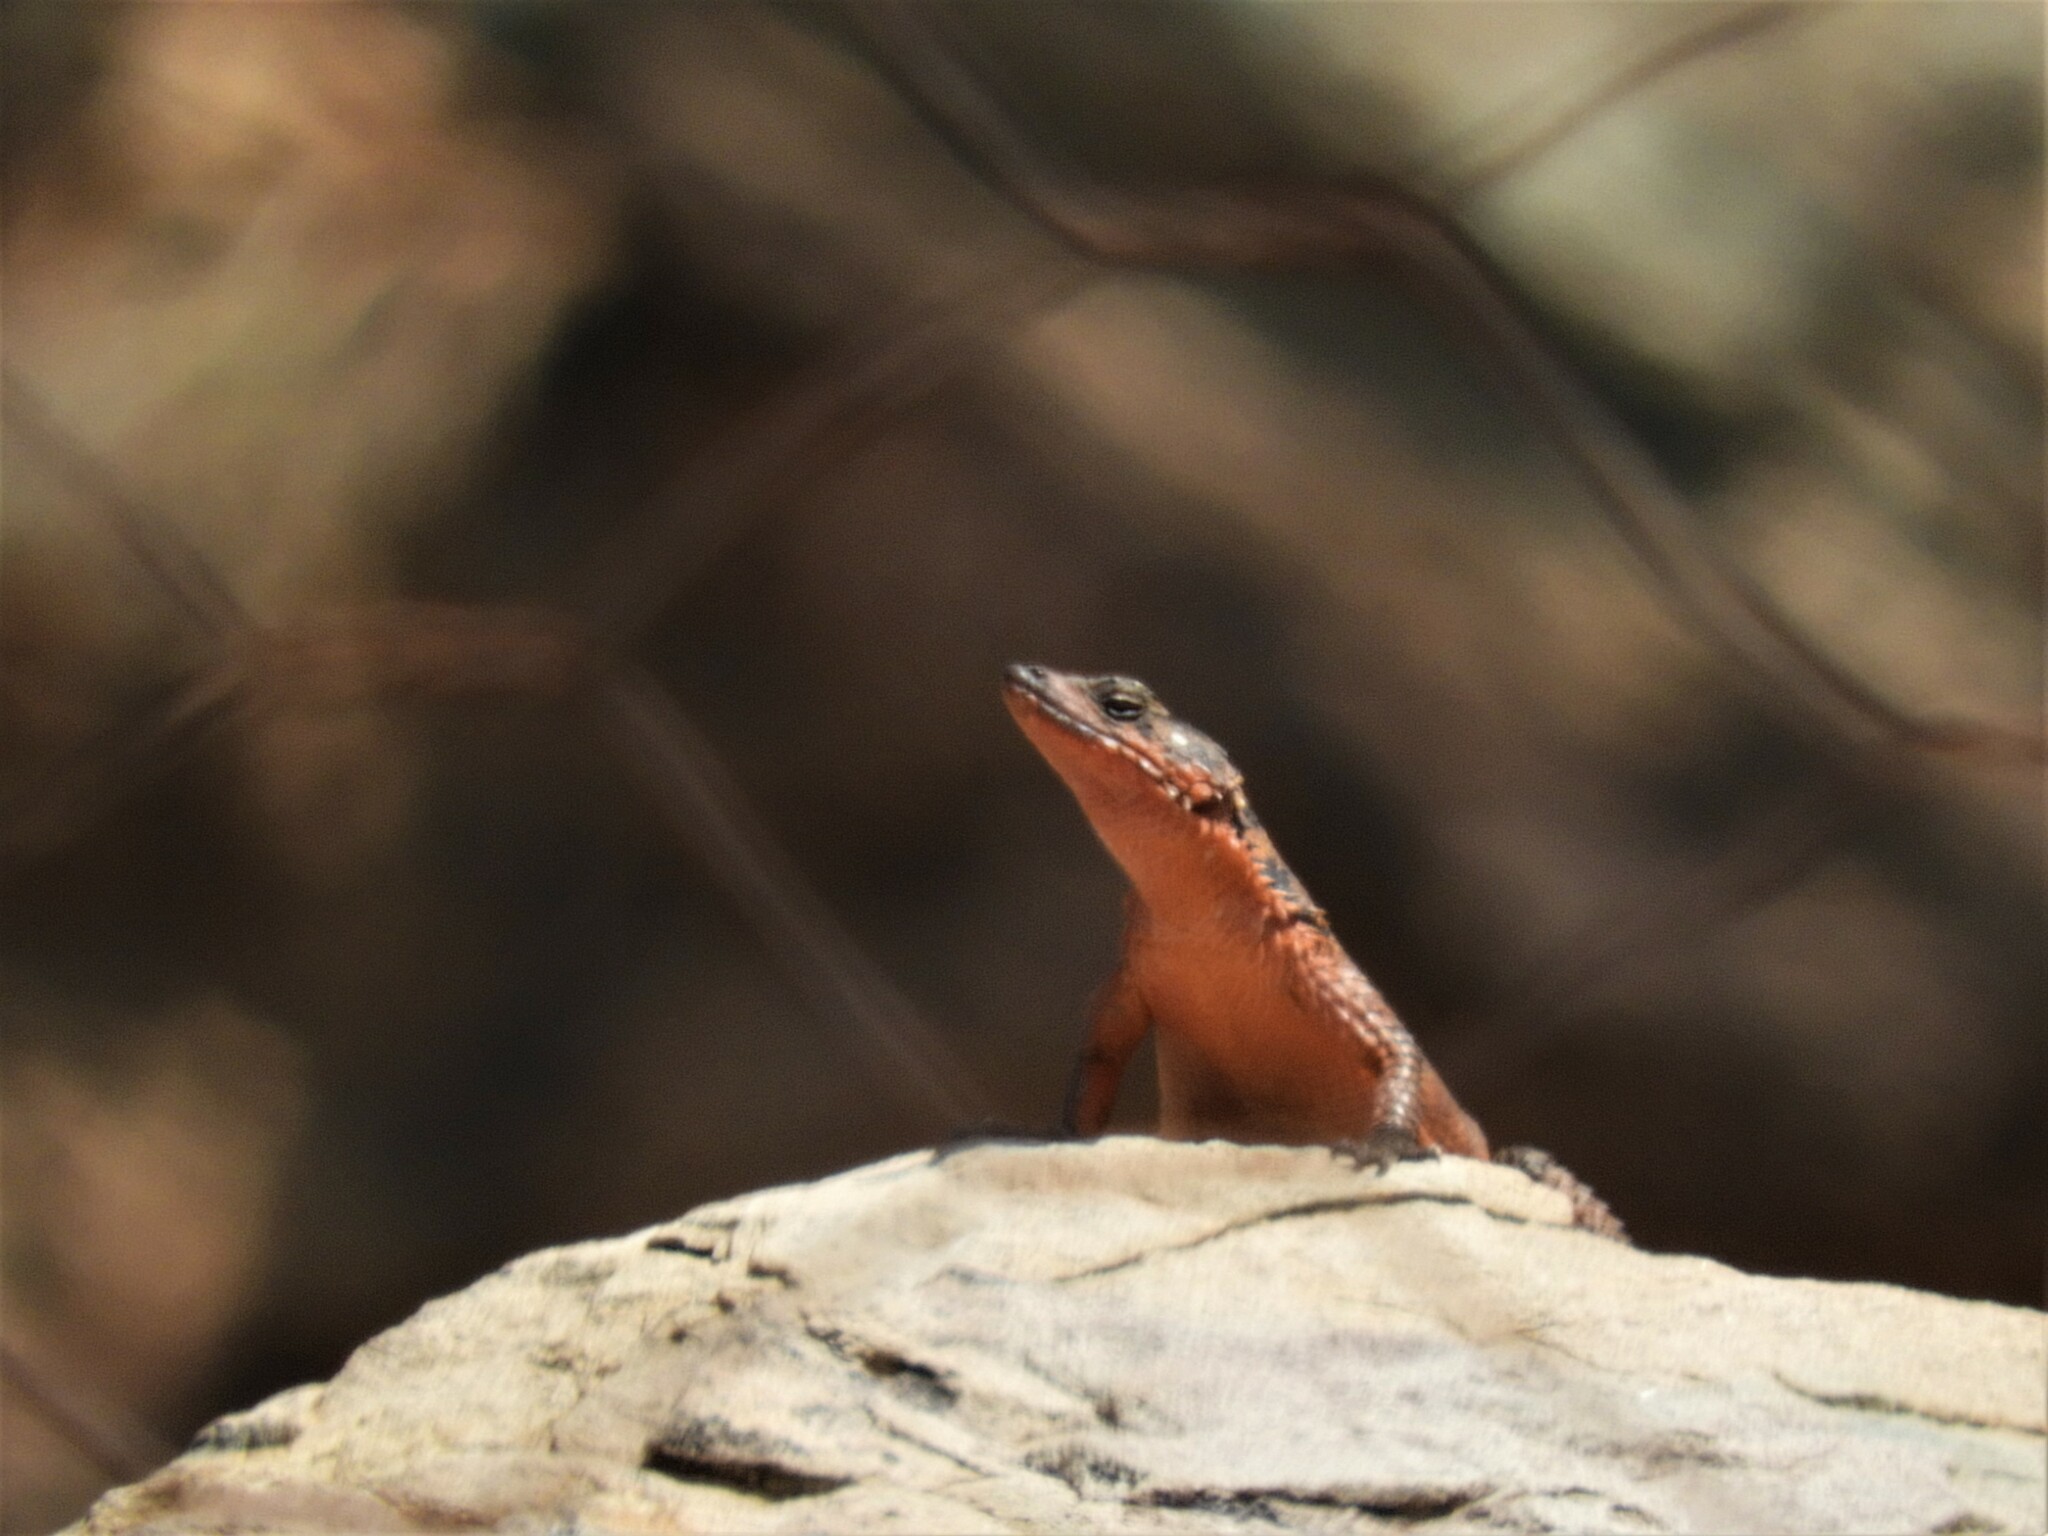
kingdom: Animalia
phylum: Chordata
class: Squamata
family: Cordylidae
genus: Karusasaurus
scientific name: Karusasaurus polyzonus
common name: Karoo girdled lizard
